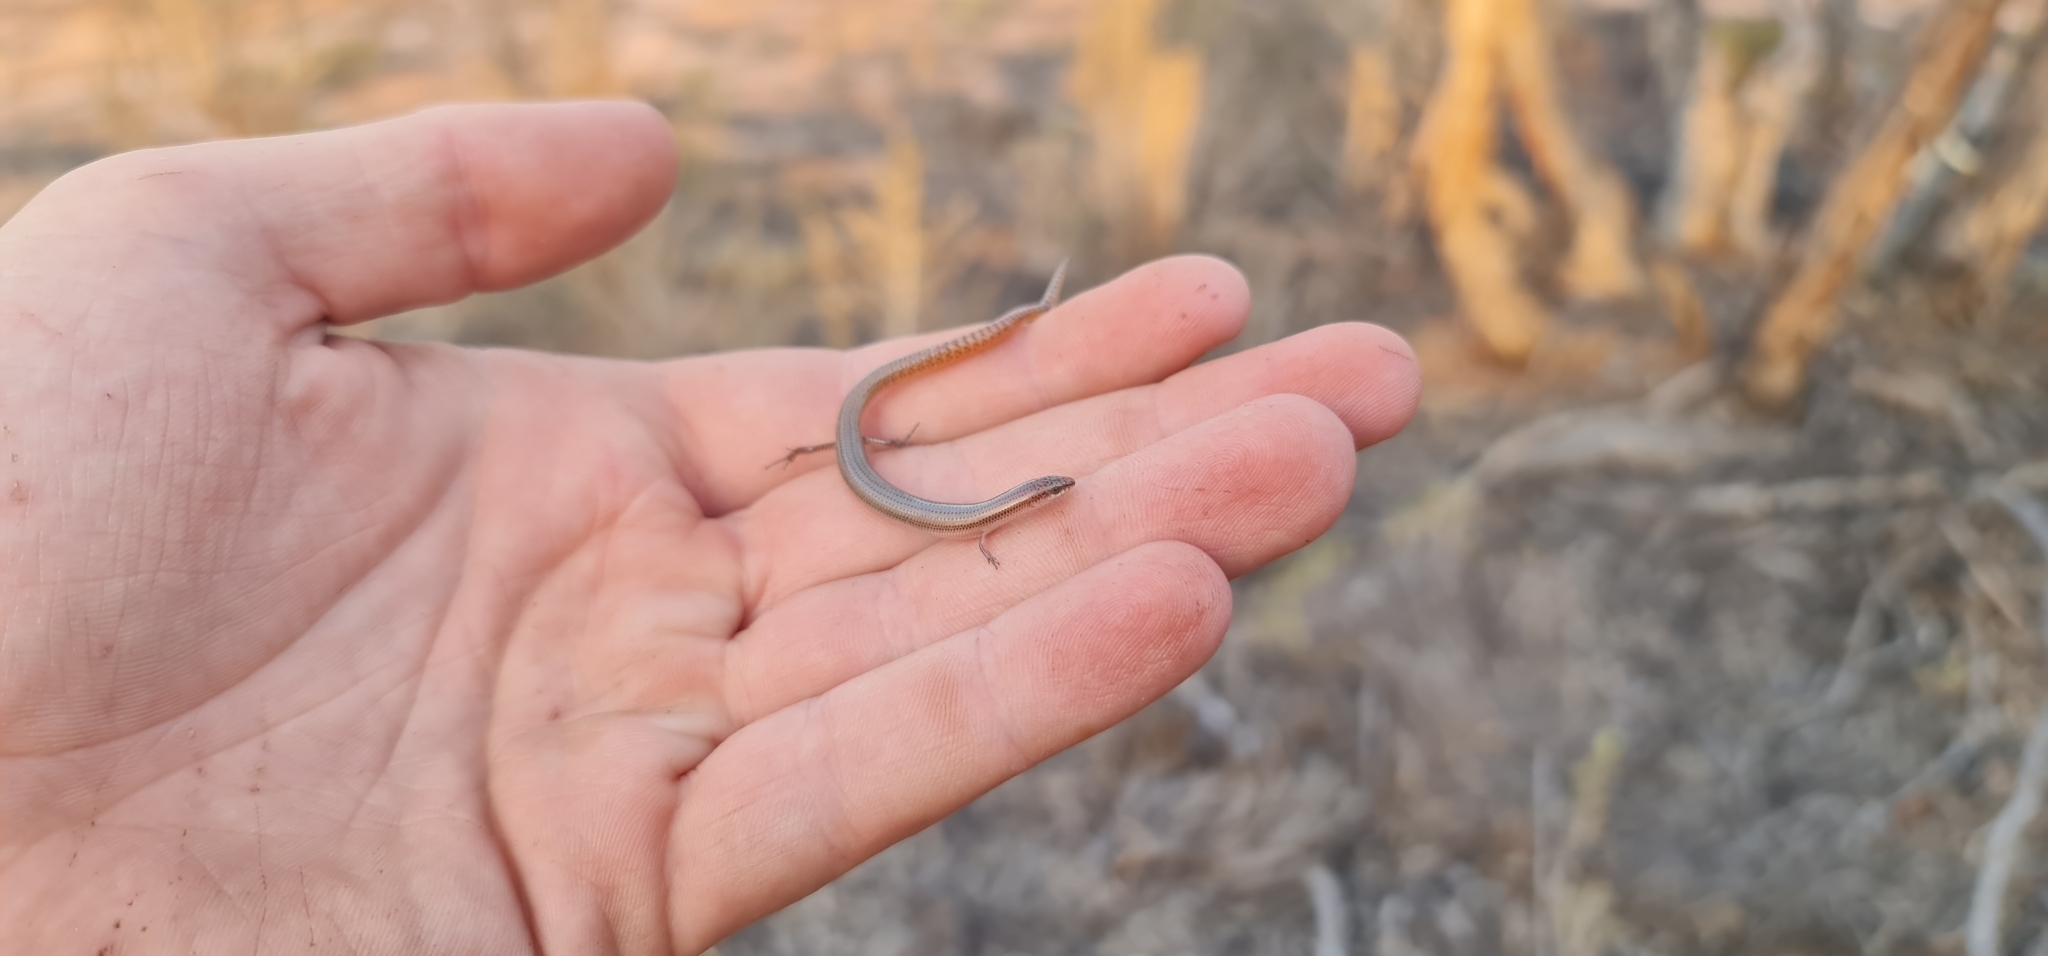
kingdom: Animalia
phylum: Chordata
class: Squamata
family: Scincidae
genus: Lerista
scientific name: Lerista aericeps
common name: Desert plain slider
